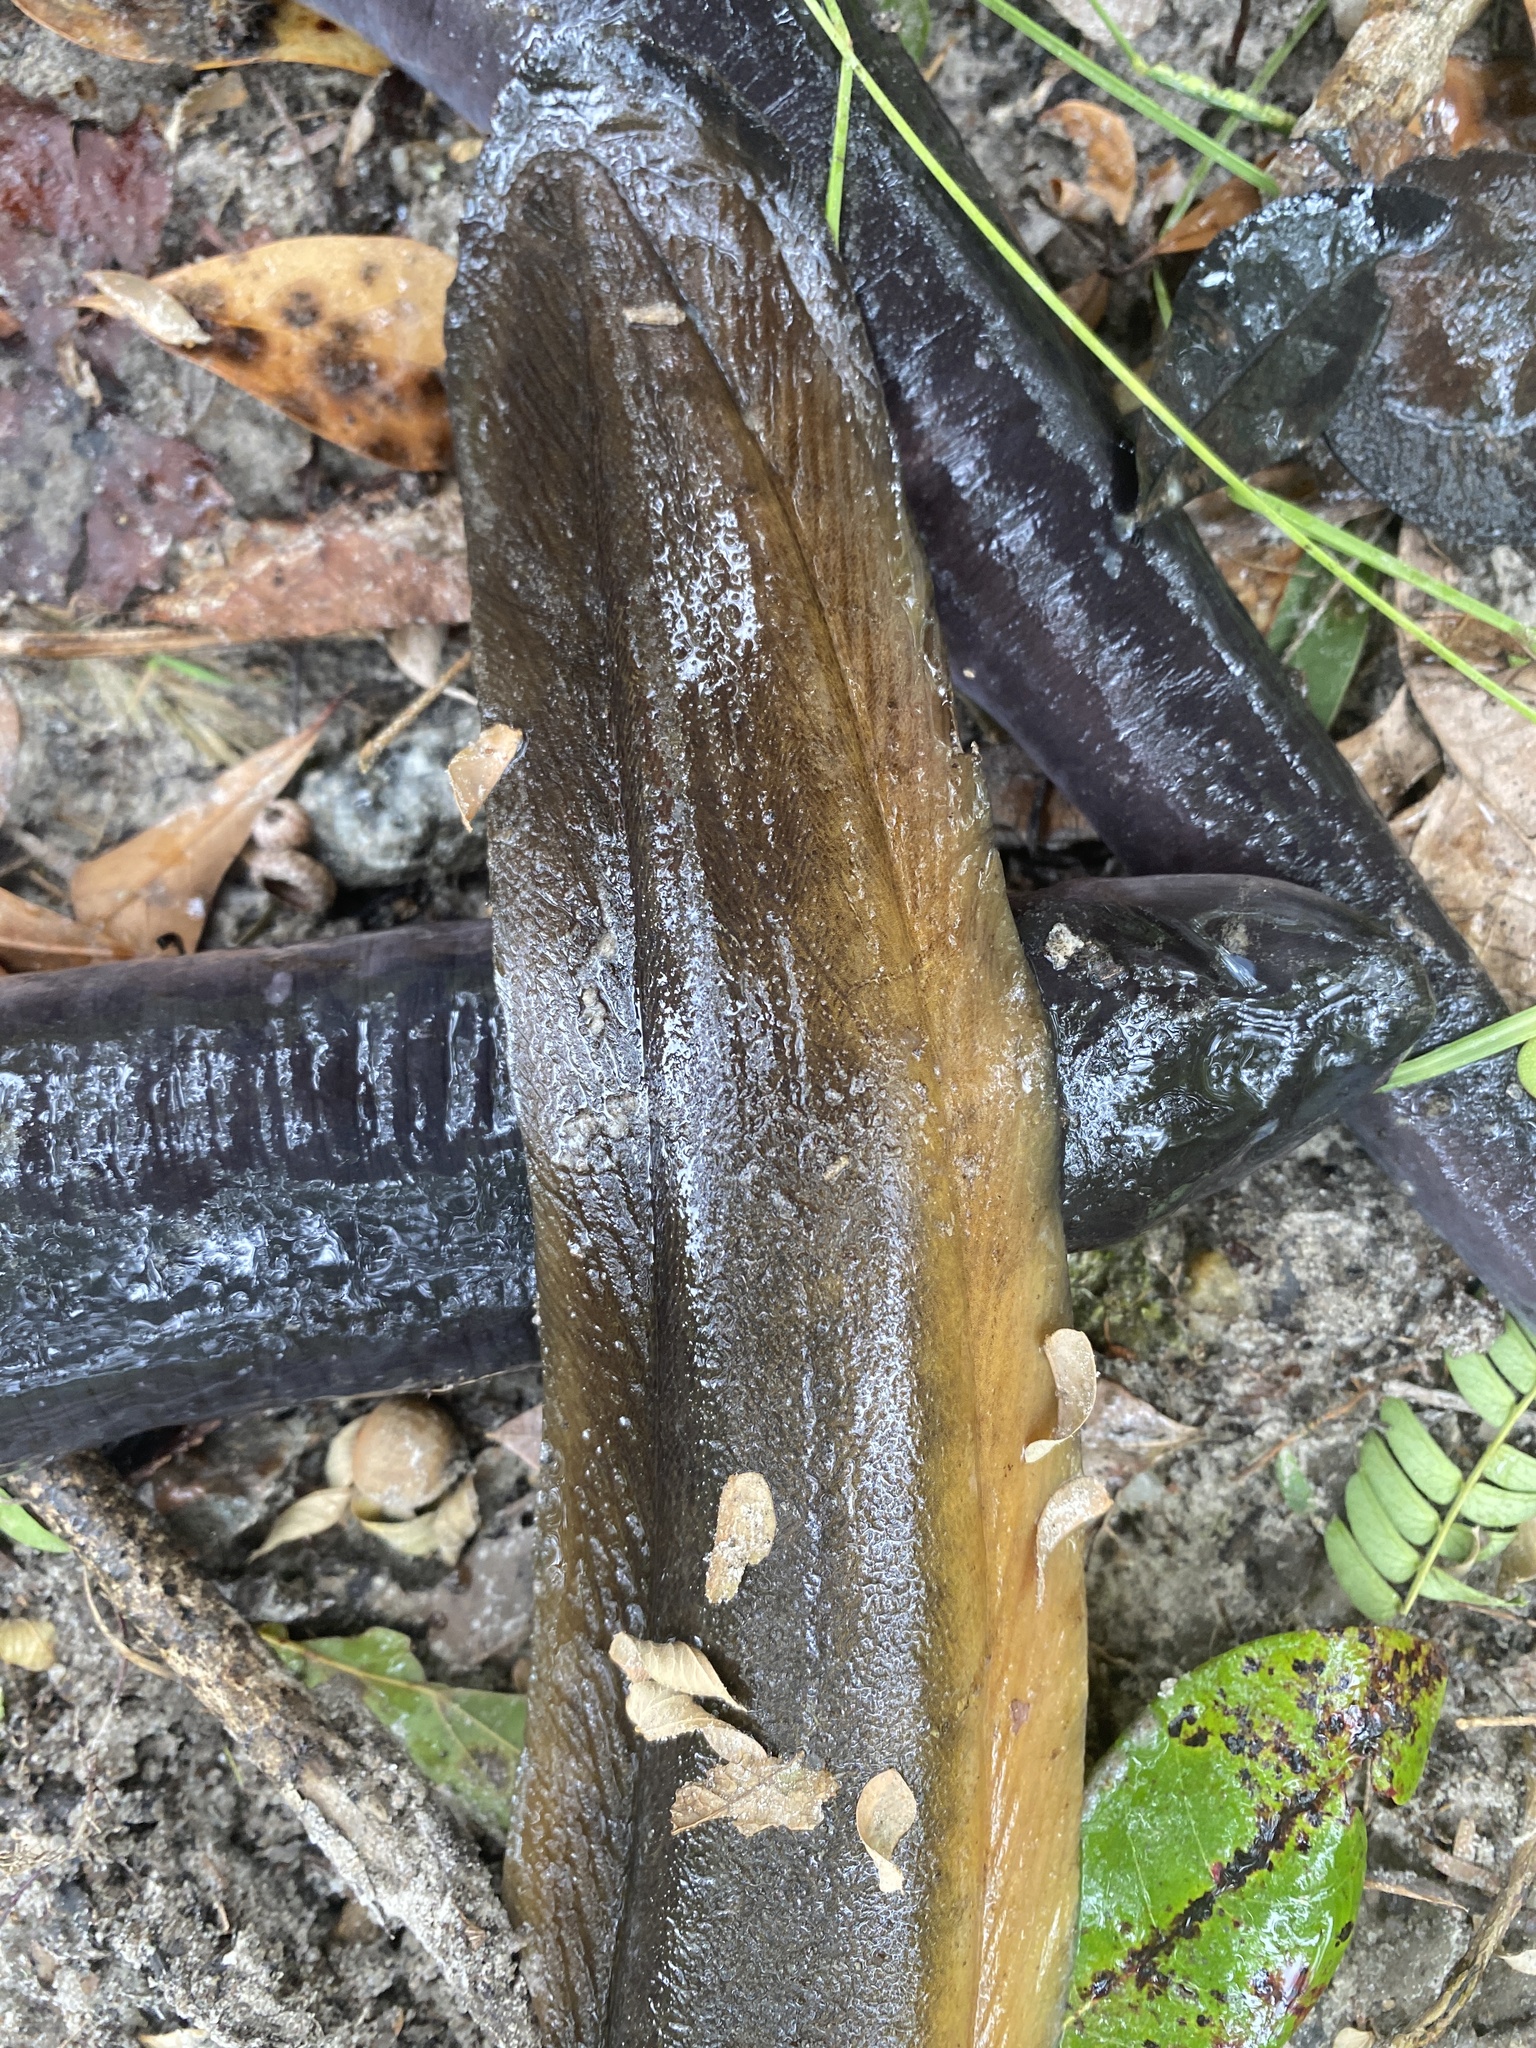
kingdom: Animalia
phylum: Chordata
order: Anguilliformes
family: Anguillidae
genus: Anguilla
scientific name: Anguilla rostrata
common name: American eel
